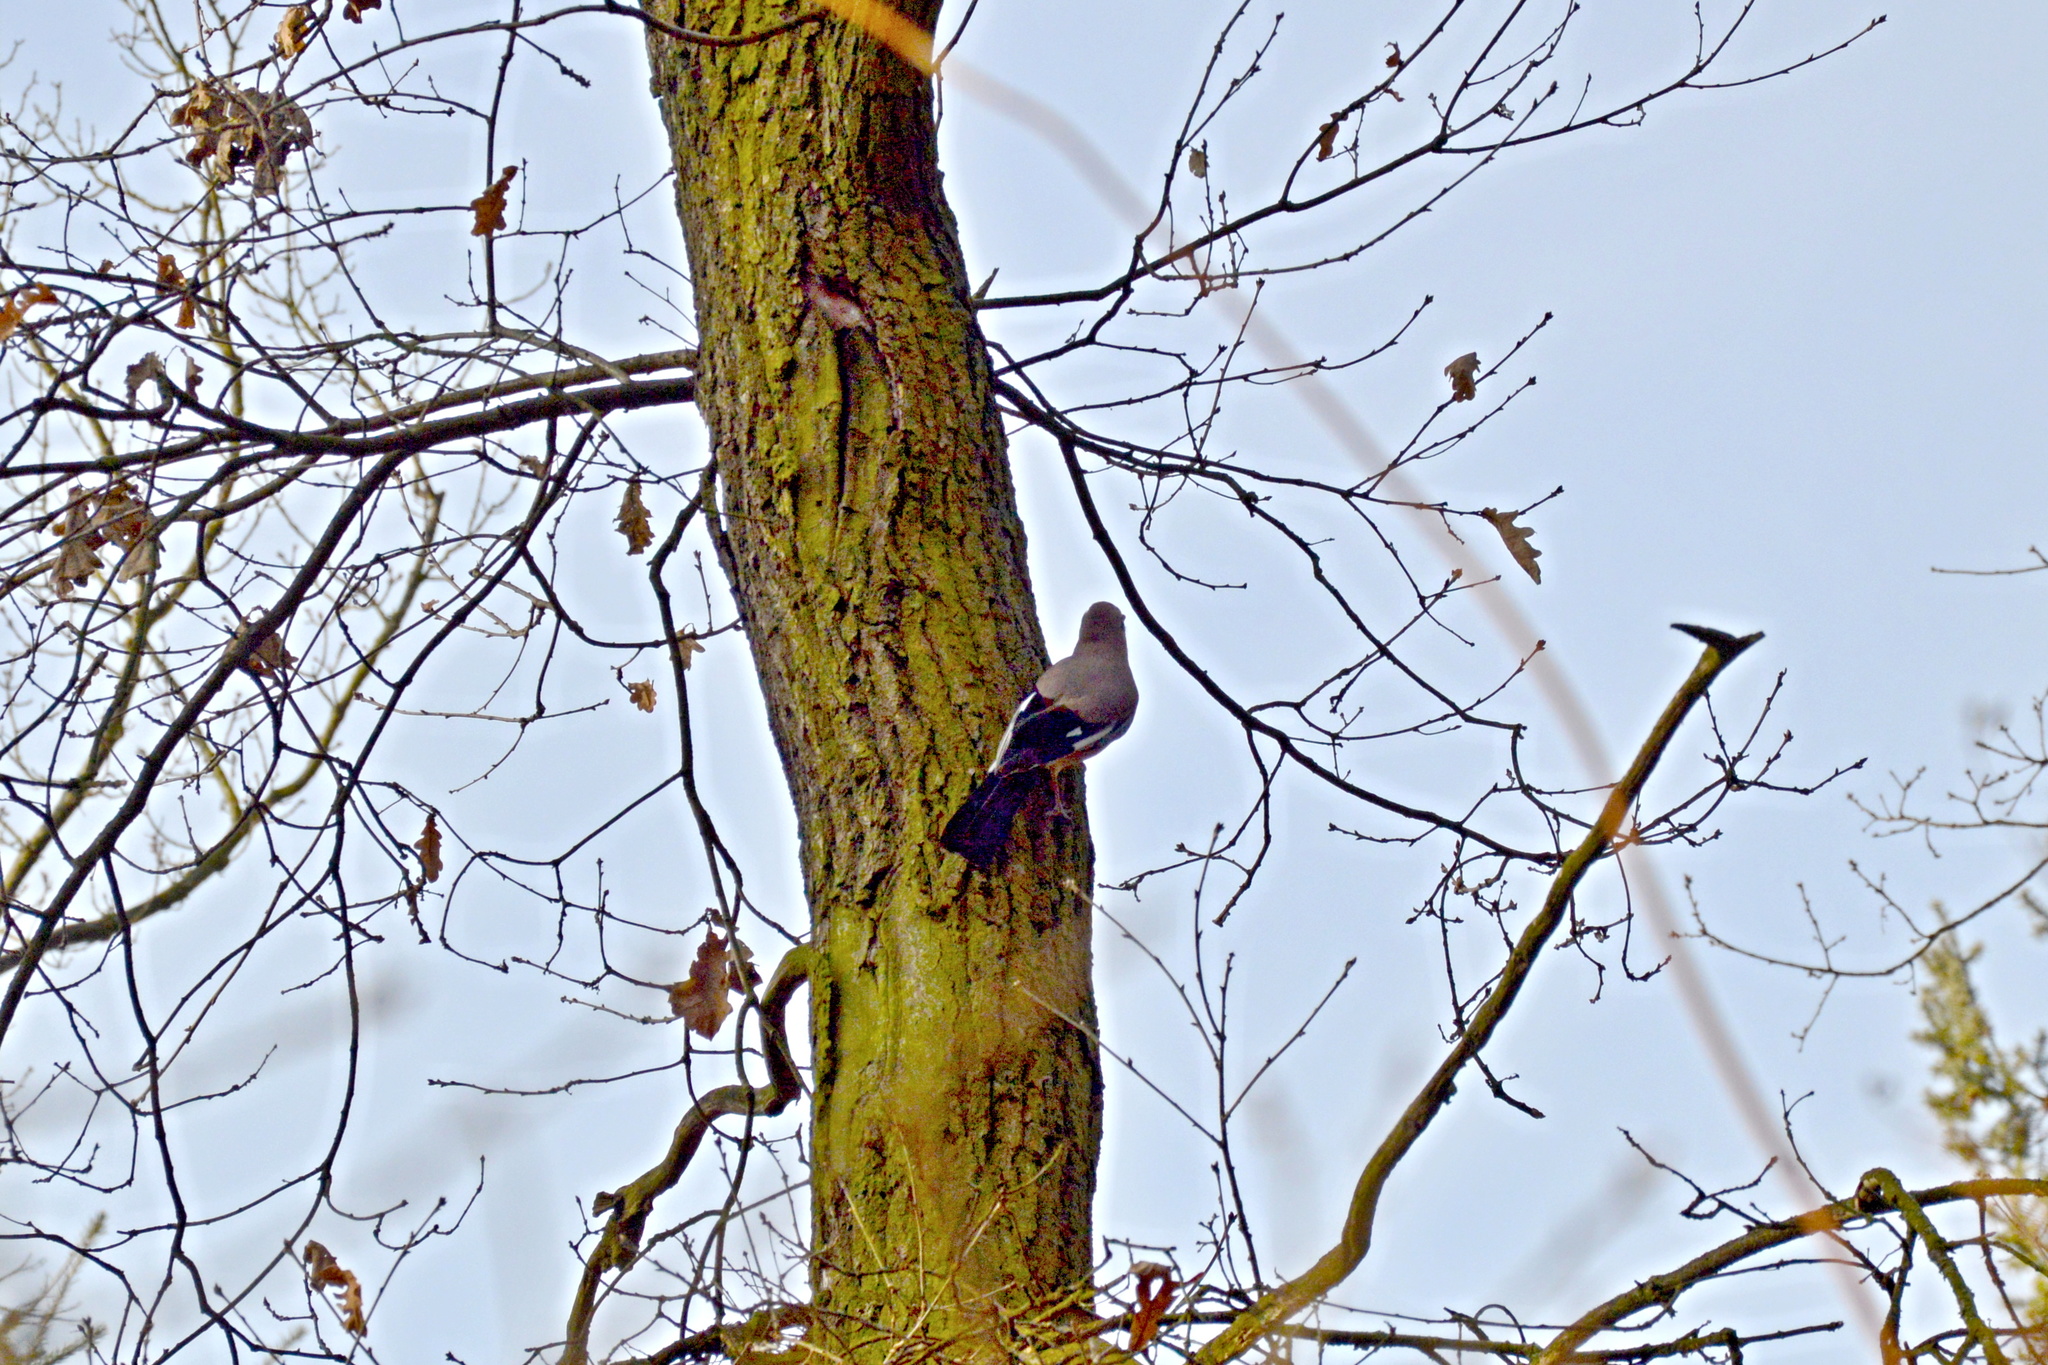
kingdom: Animalia
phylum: Chordata
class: Aves
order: Passeriformes
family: Corvidae
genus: Garrulus
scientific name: Garrulus glandarius
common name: Eurasian jay
